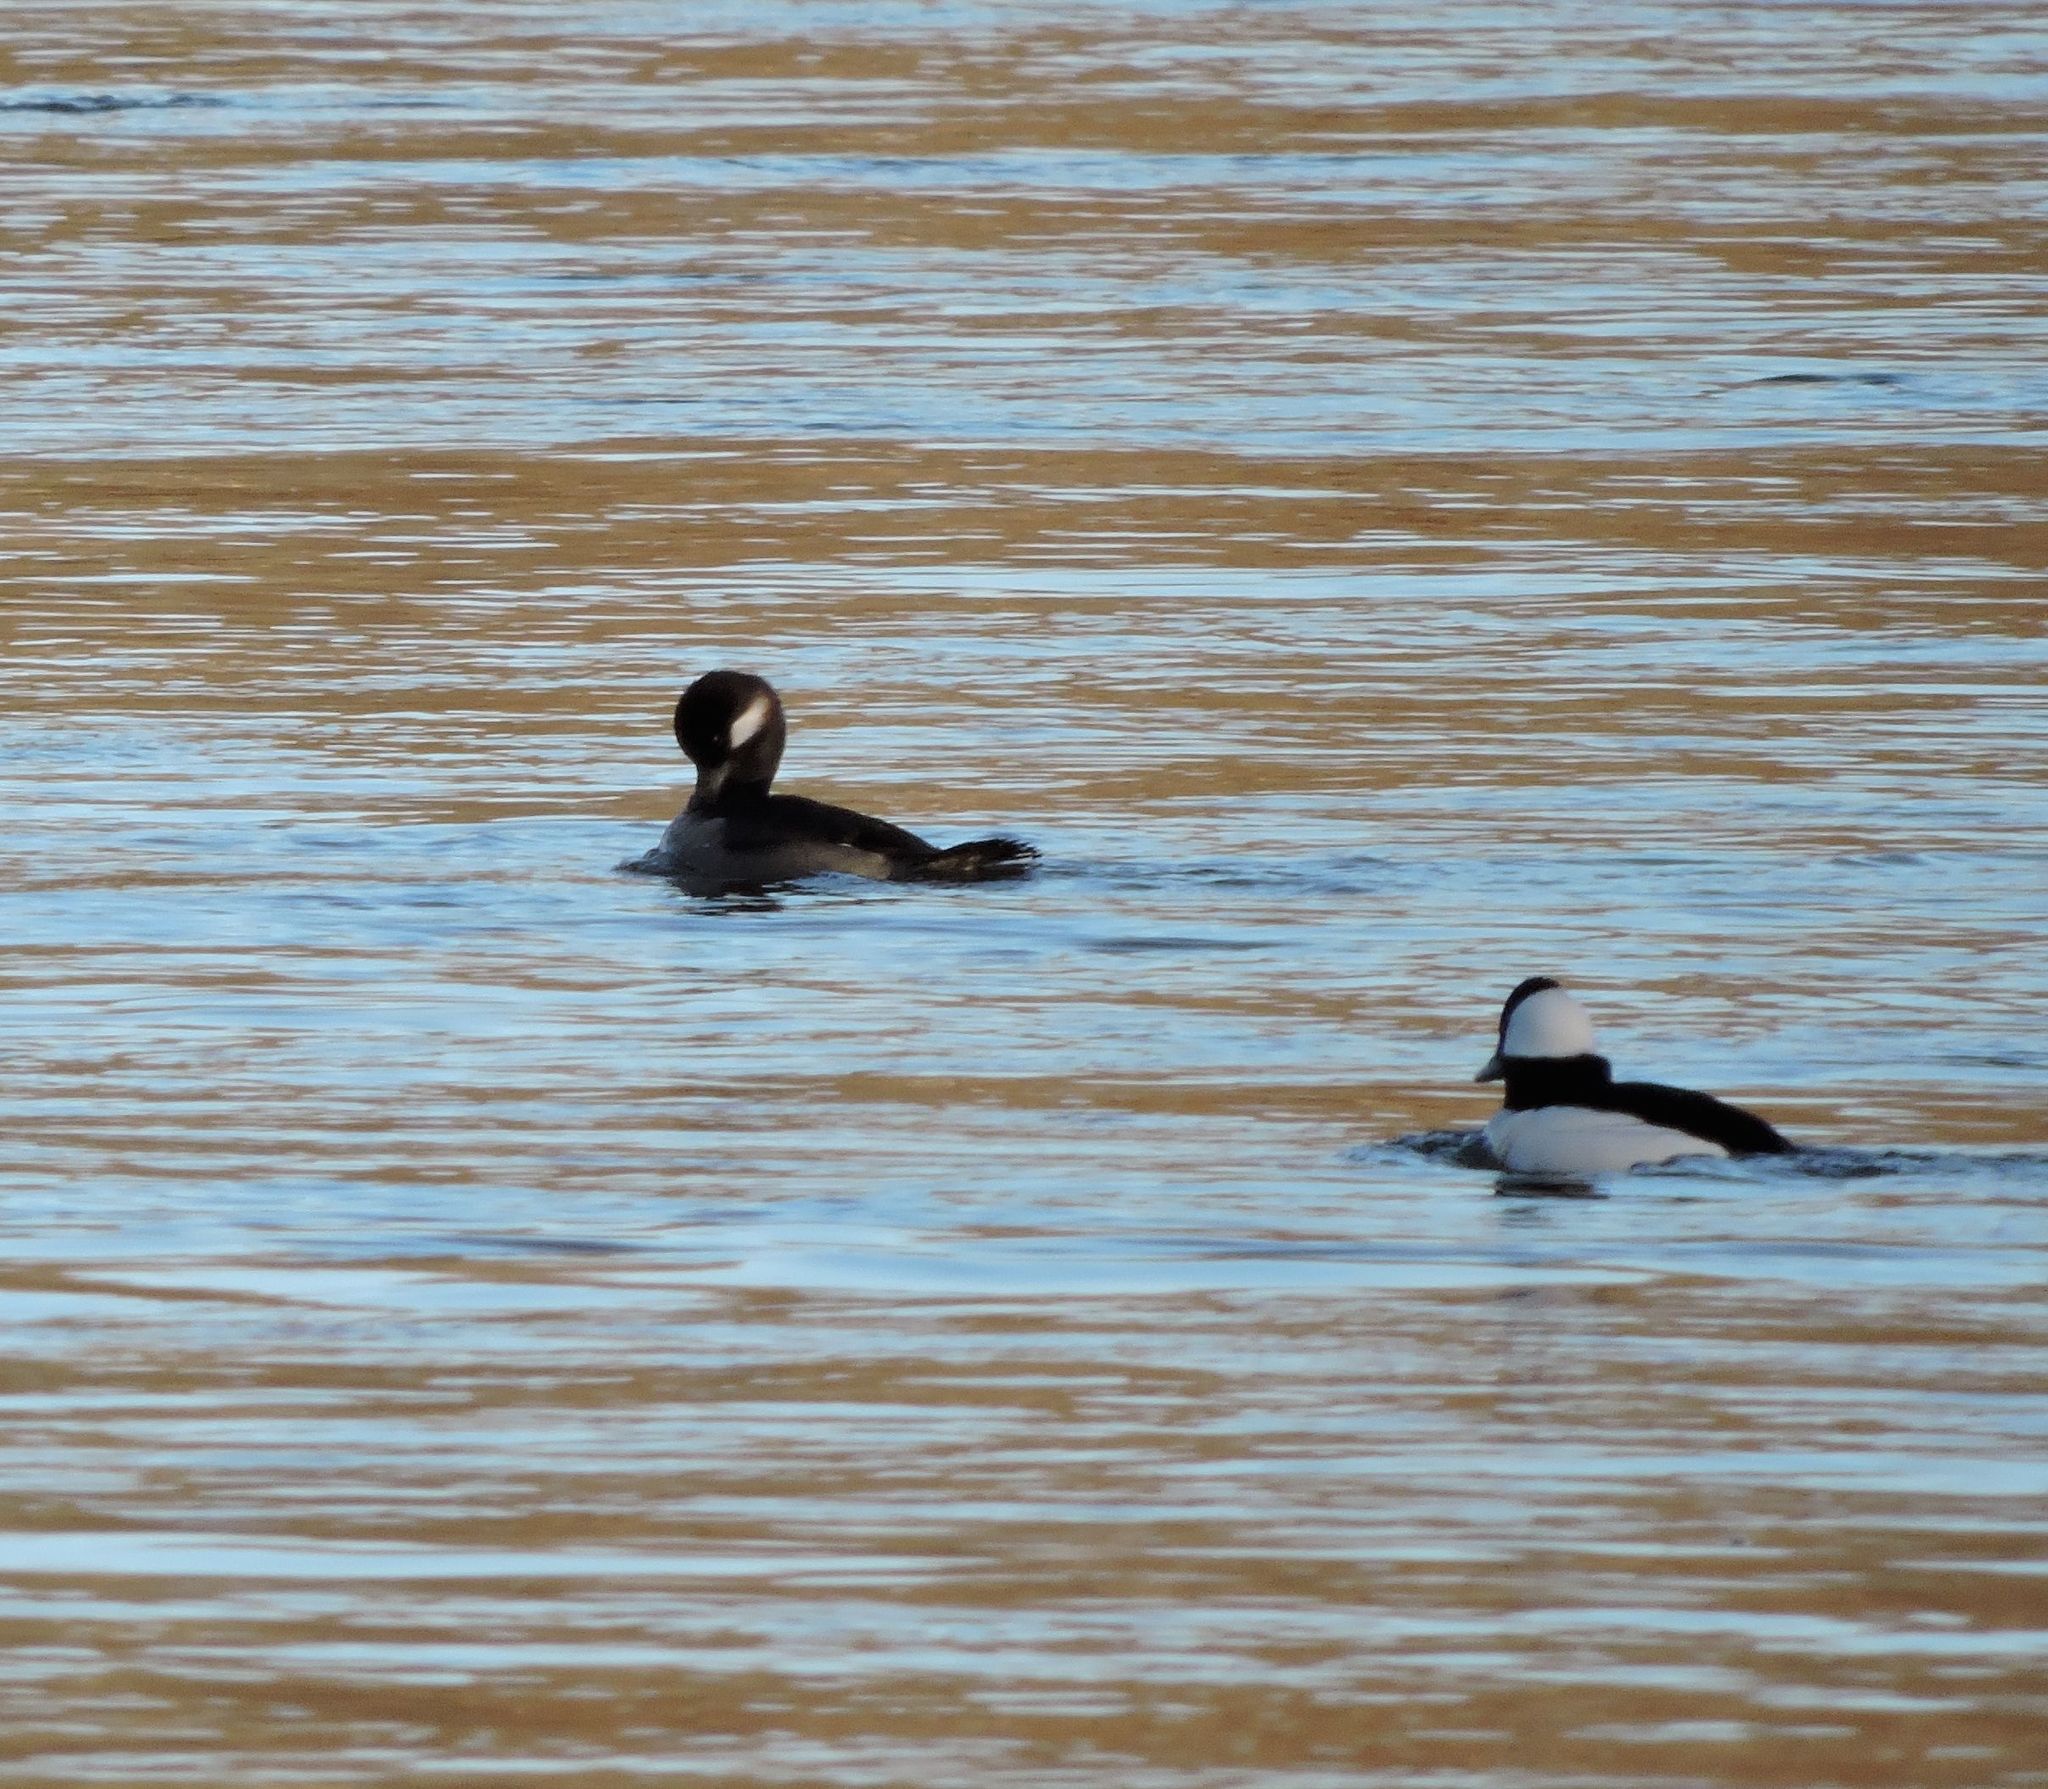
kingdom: Animalia
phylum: Chordata
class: Aves
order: Anseriformes
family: Anatidae
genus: Bucephala
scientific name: Bucephala albeola
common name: Bufflehead
